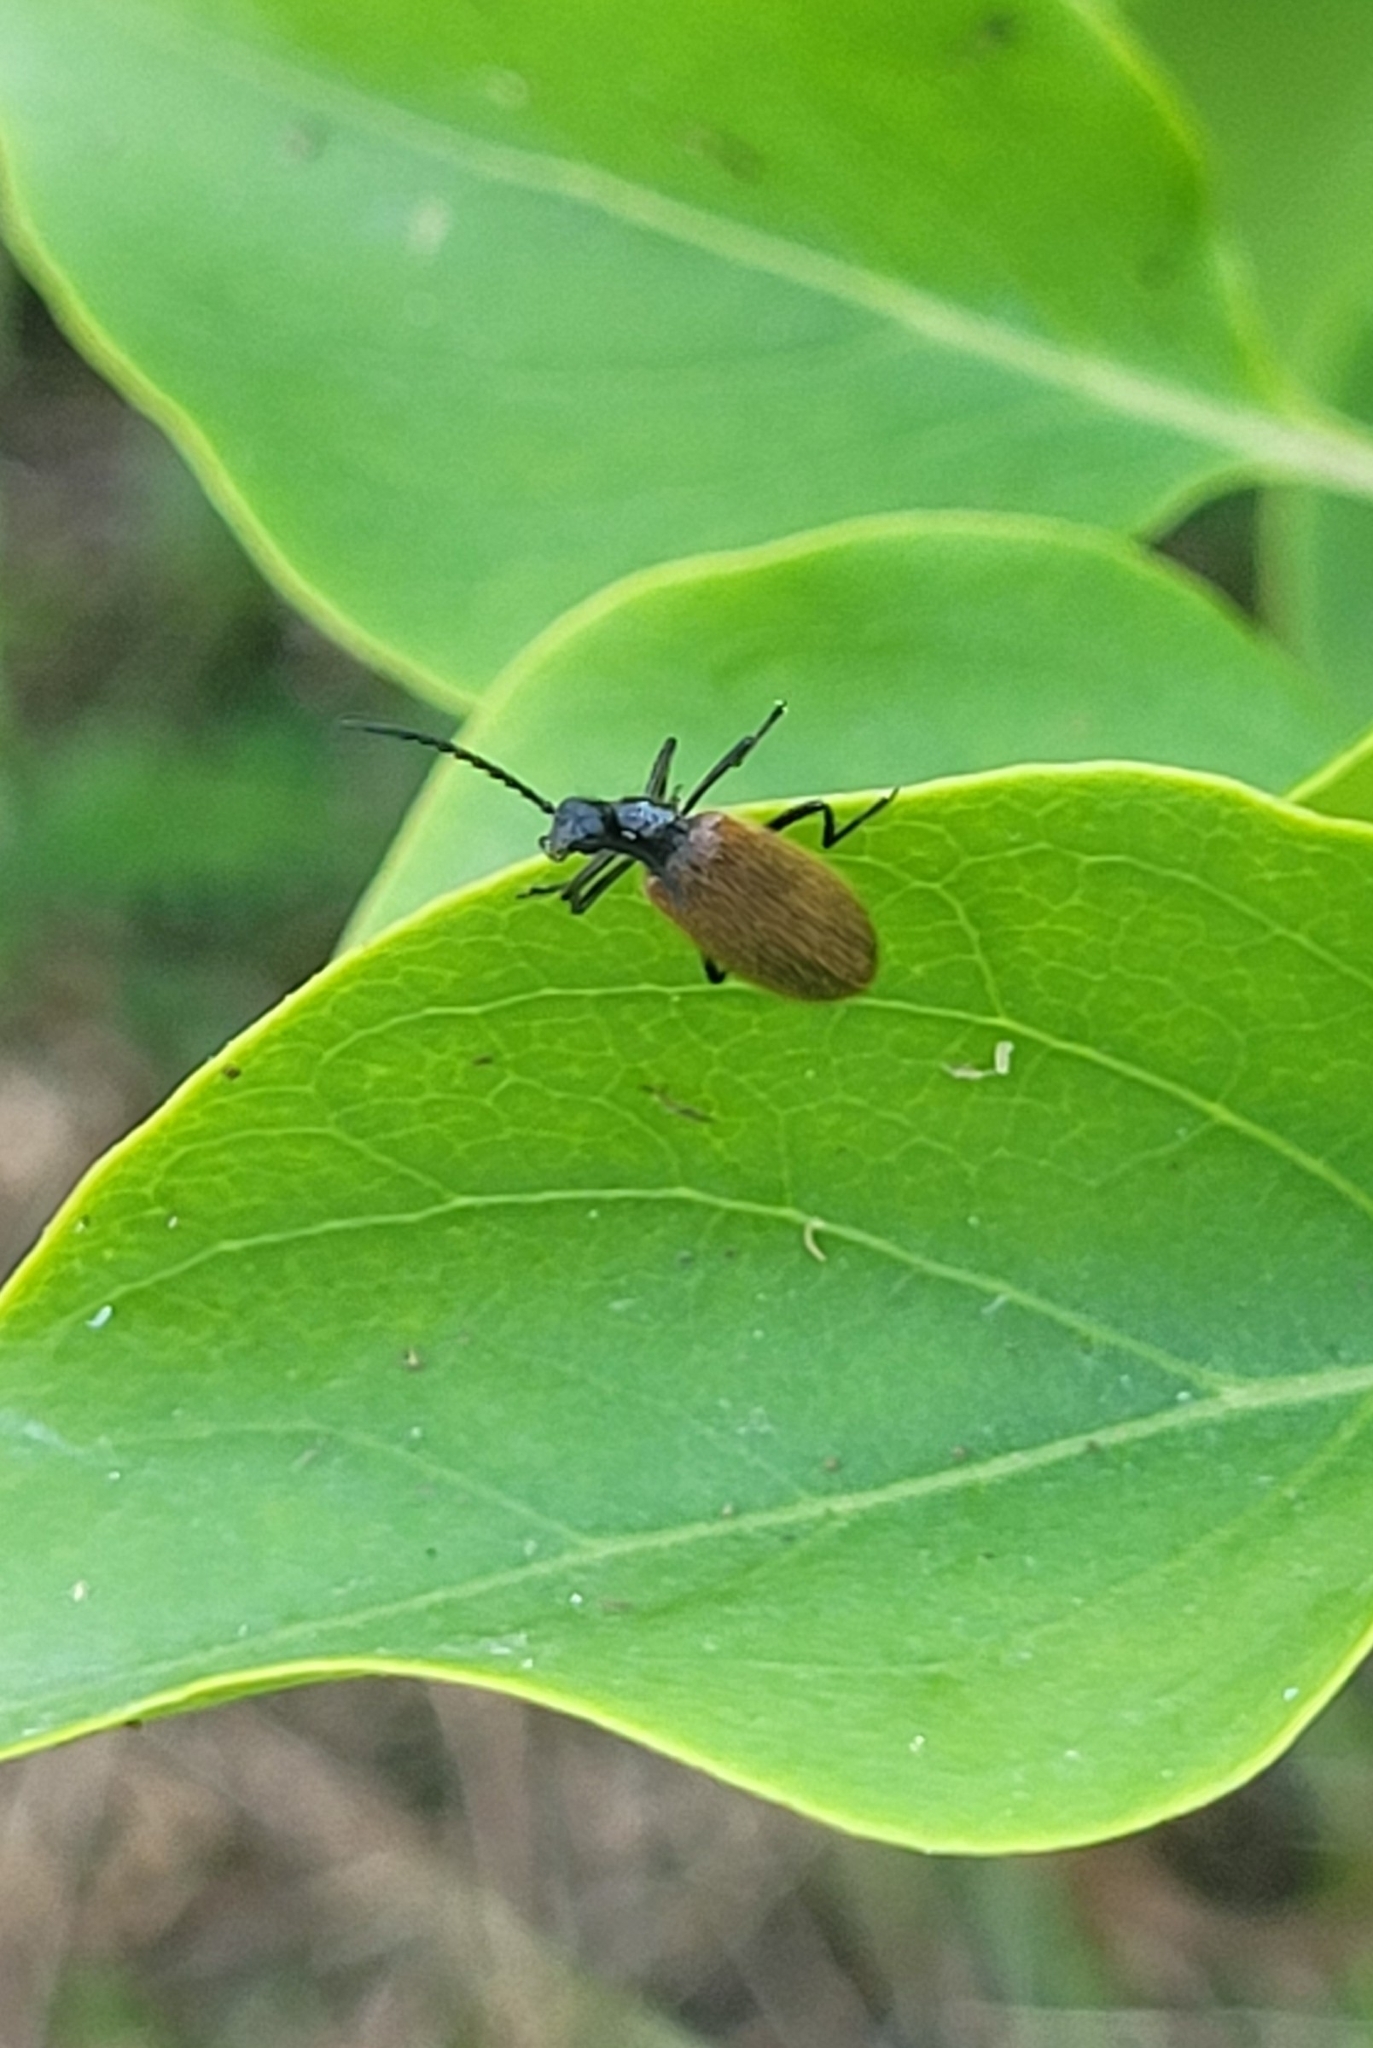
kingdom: Animalia
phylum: Arthropoda
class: Insecta
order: Coleoptera
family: Tenebrionidae
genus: Lagria
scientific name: Lagria hirta
